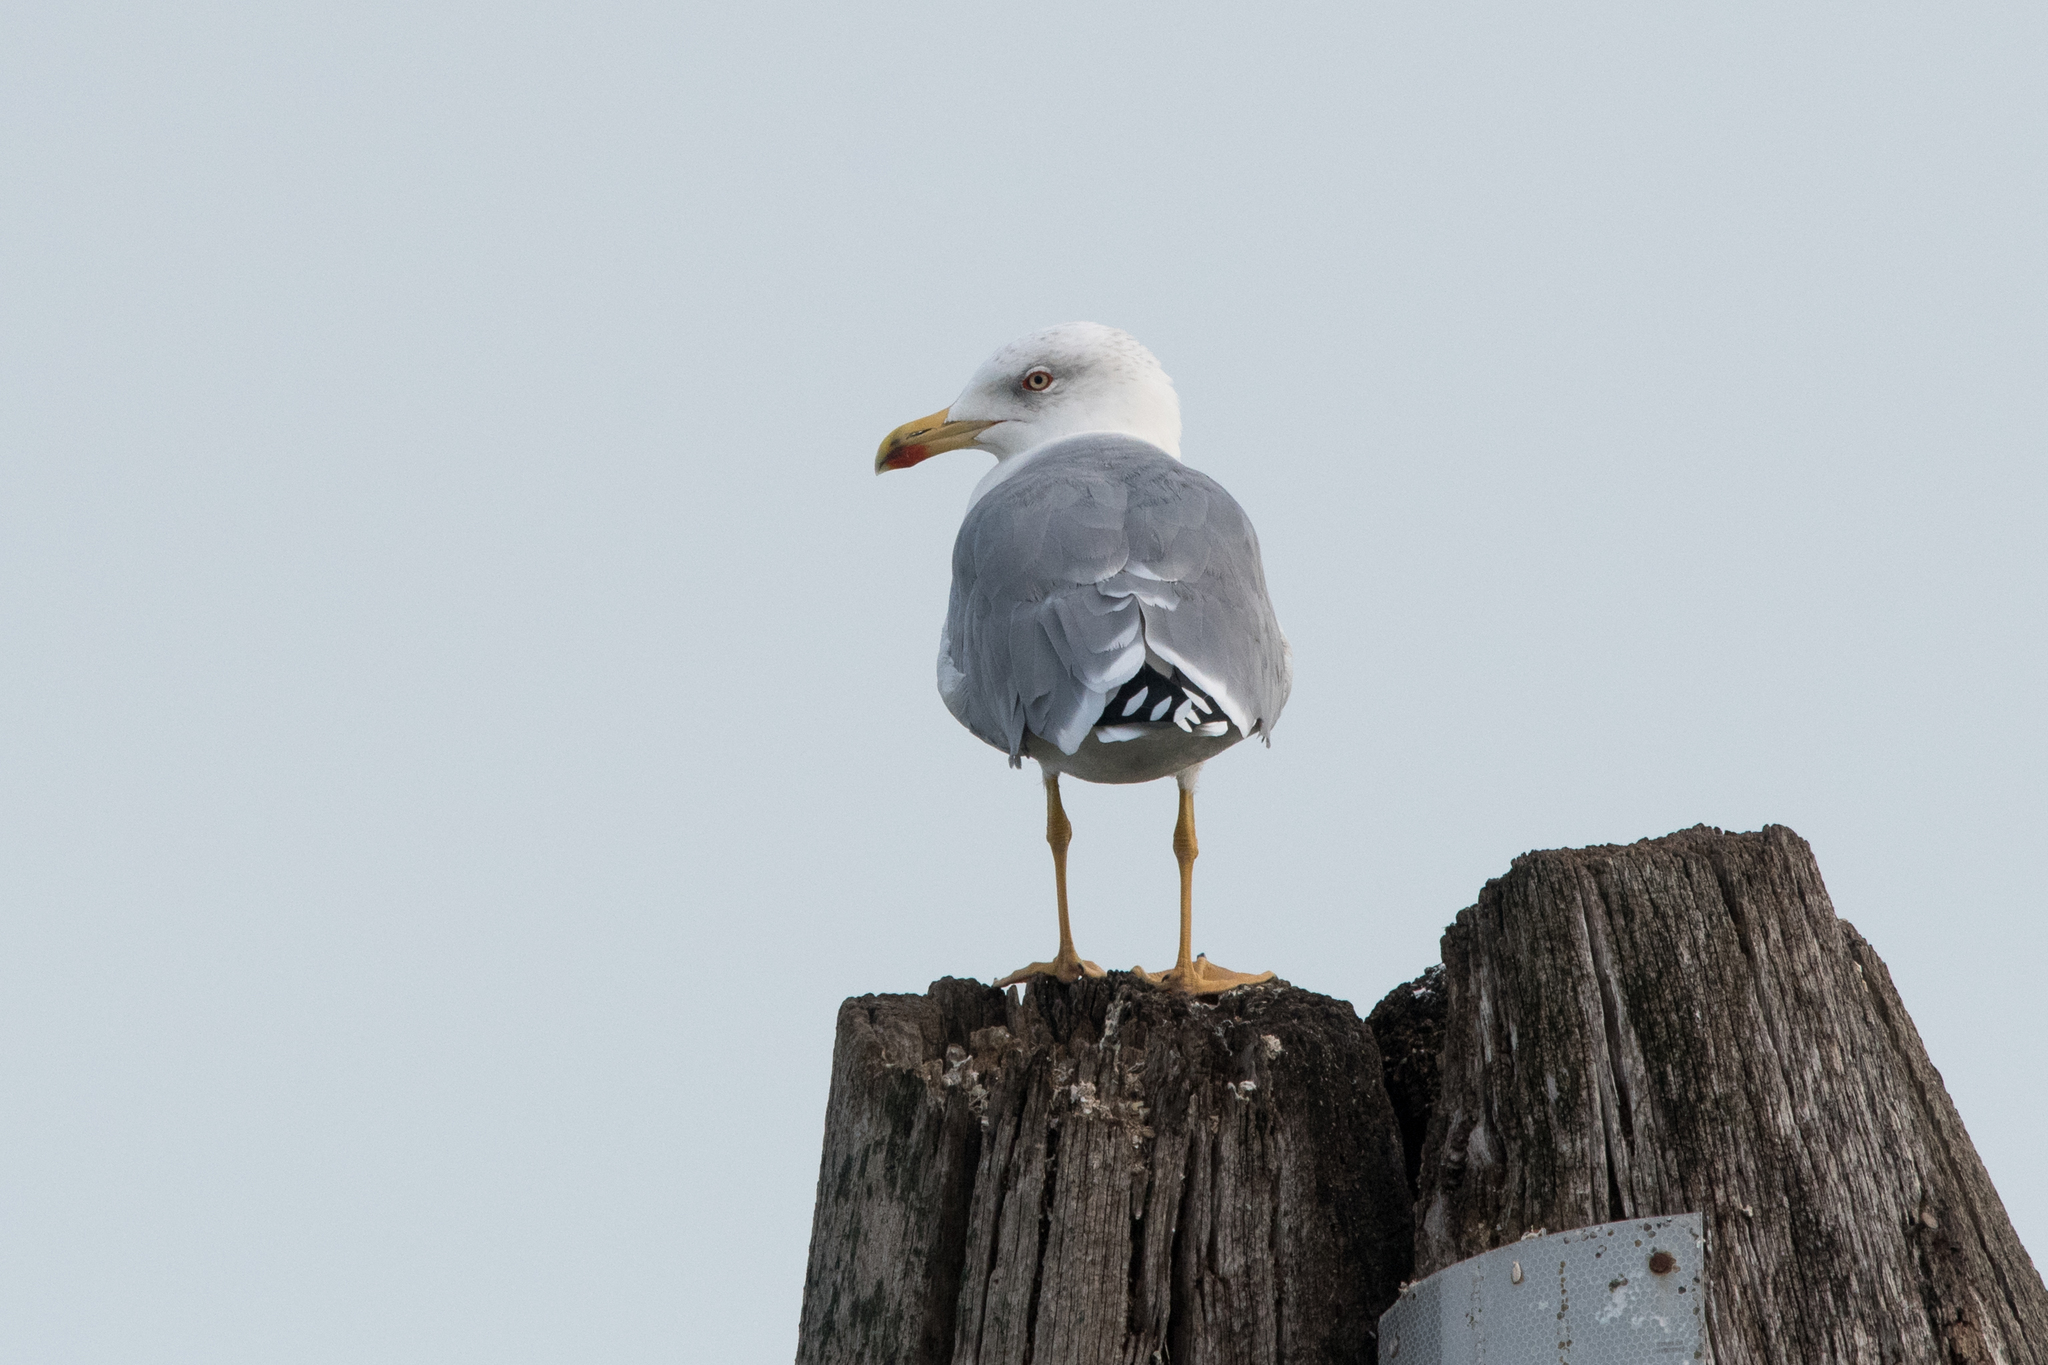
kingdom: Animalia
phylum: Chordata
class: Aves
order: Charadriiformes
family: Laridae
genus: Larus
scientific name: Larus michahellis
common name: Yellow-legged gull
